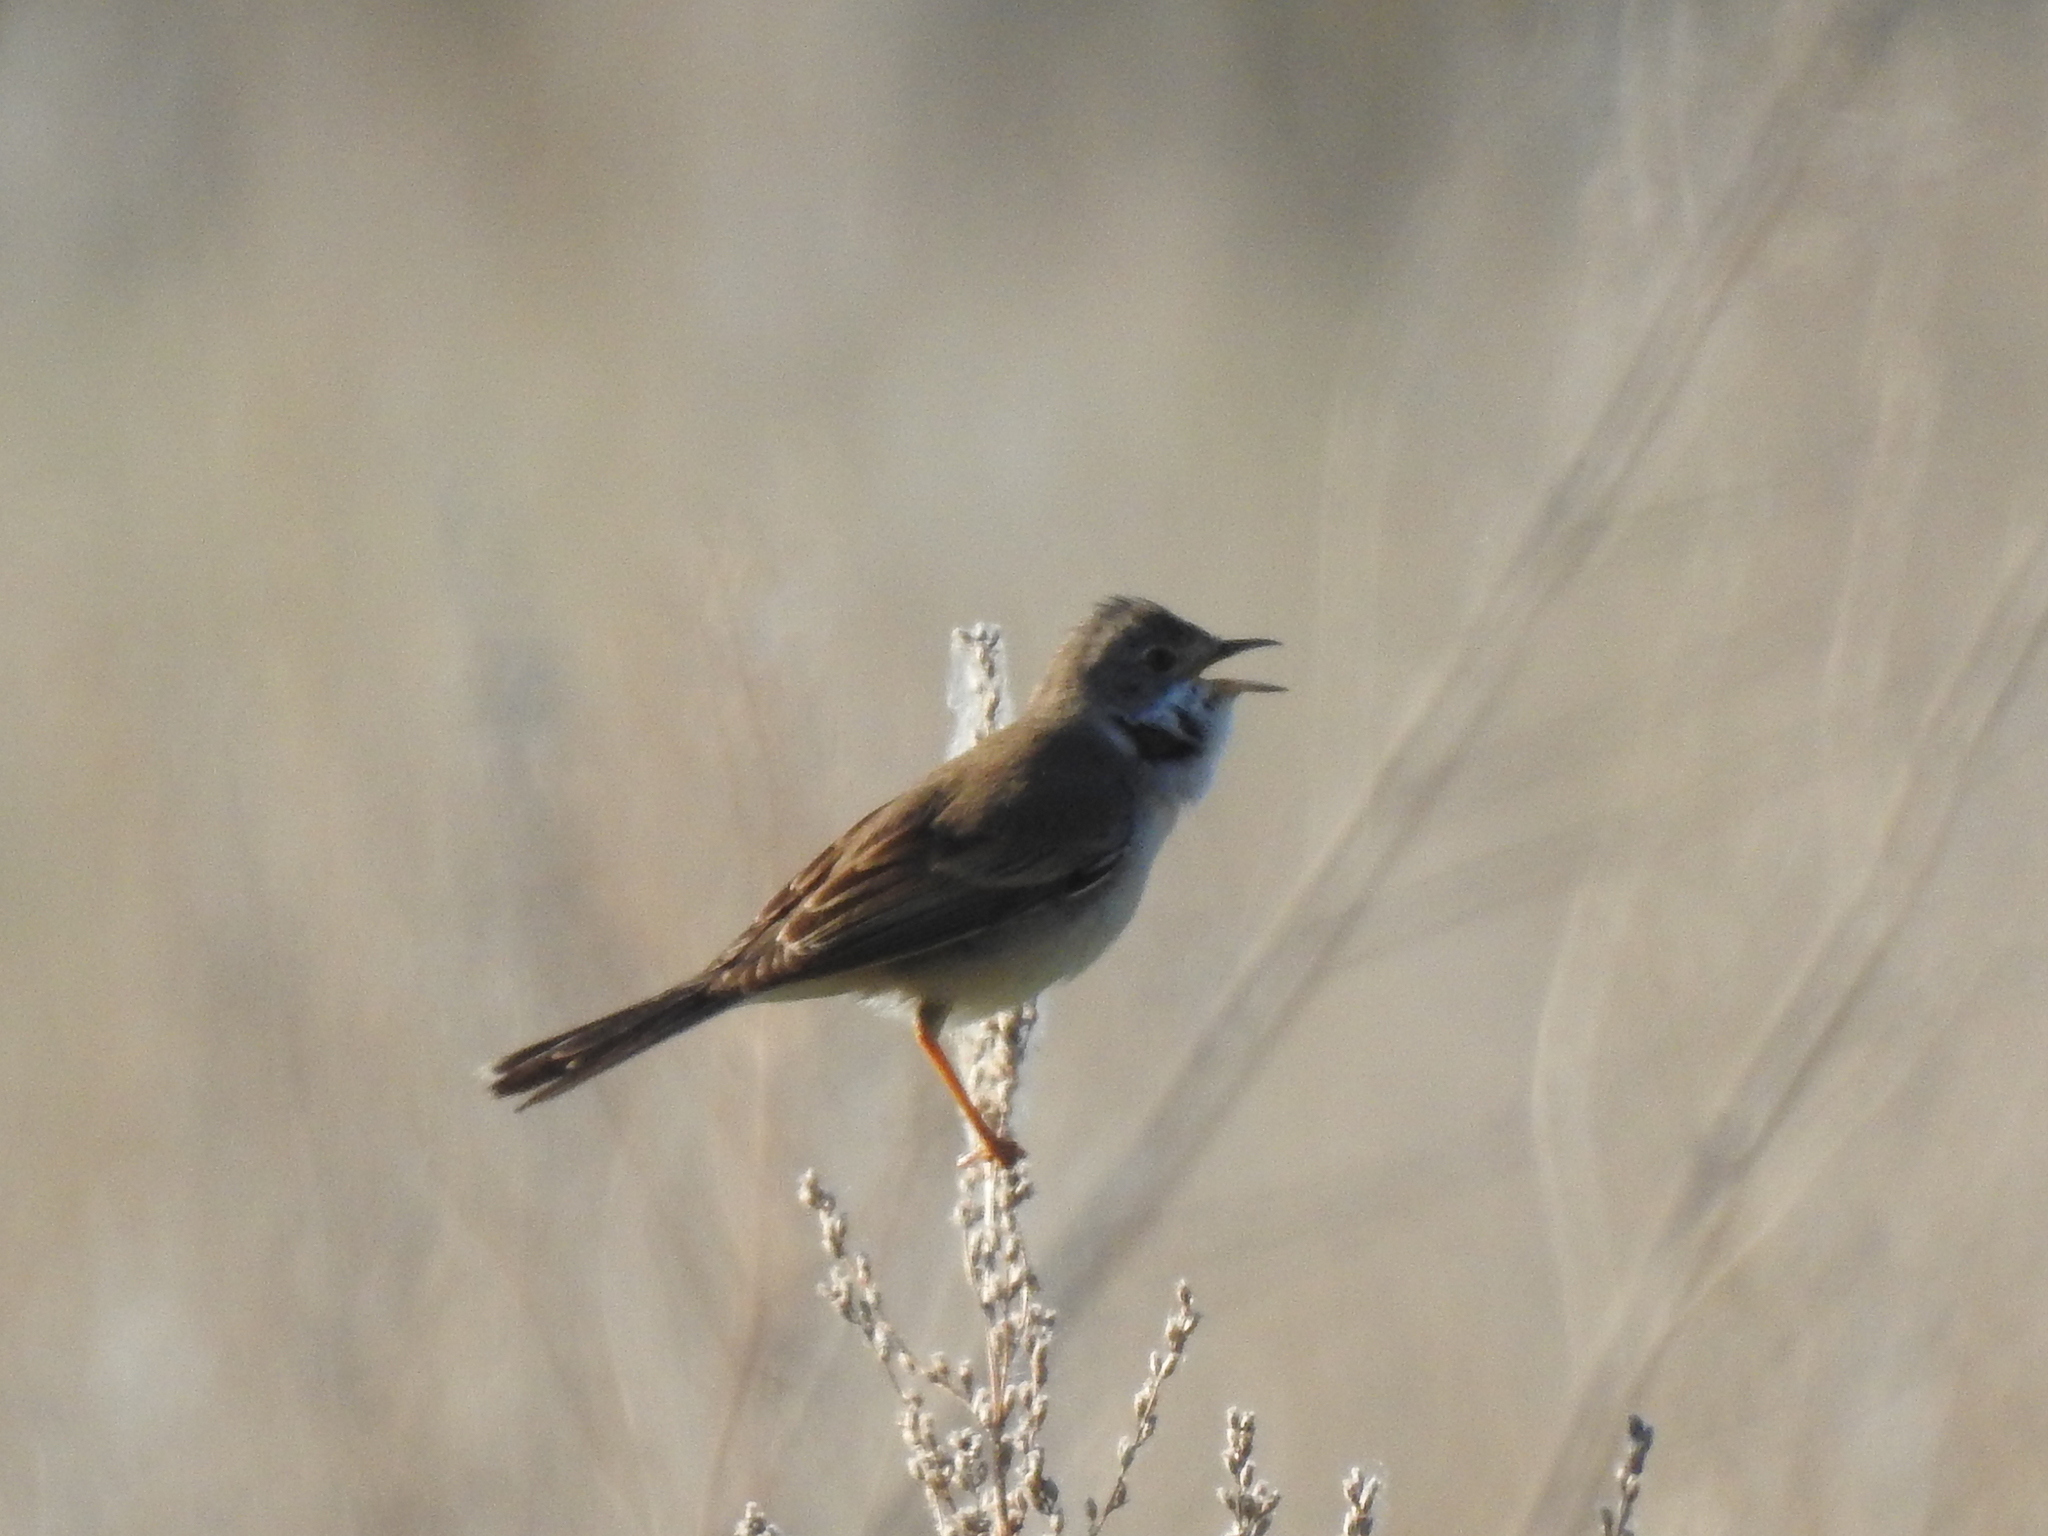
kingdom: Animalia
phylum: Chordata
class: Aves
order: Passeriformes
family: Sylviidae
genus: Sylvia
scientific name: Sylvia communis
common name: Common whitethroat
